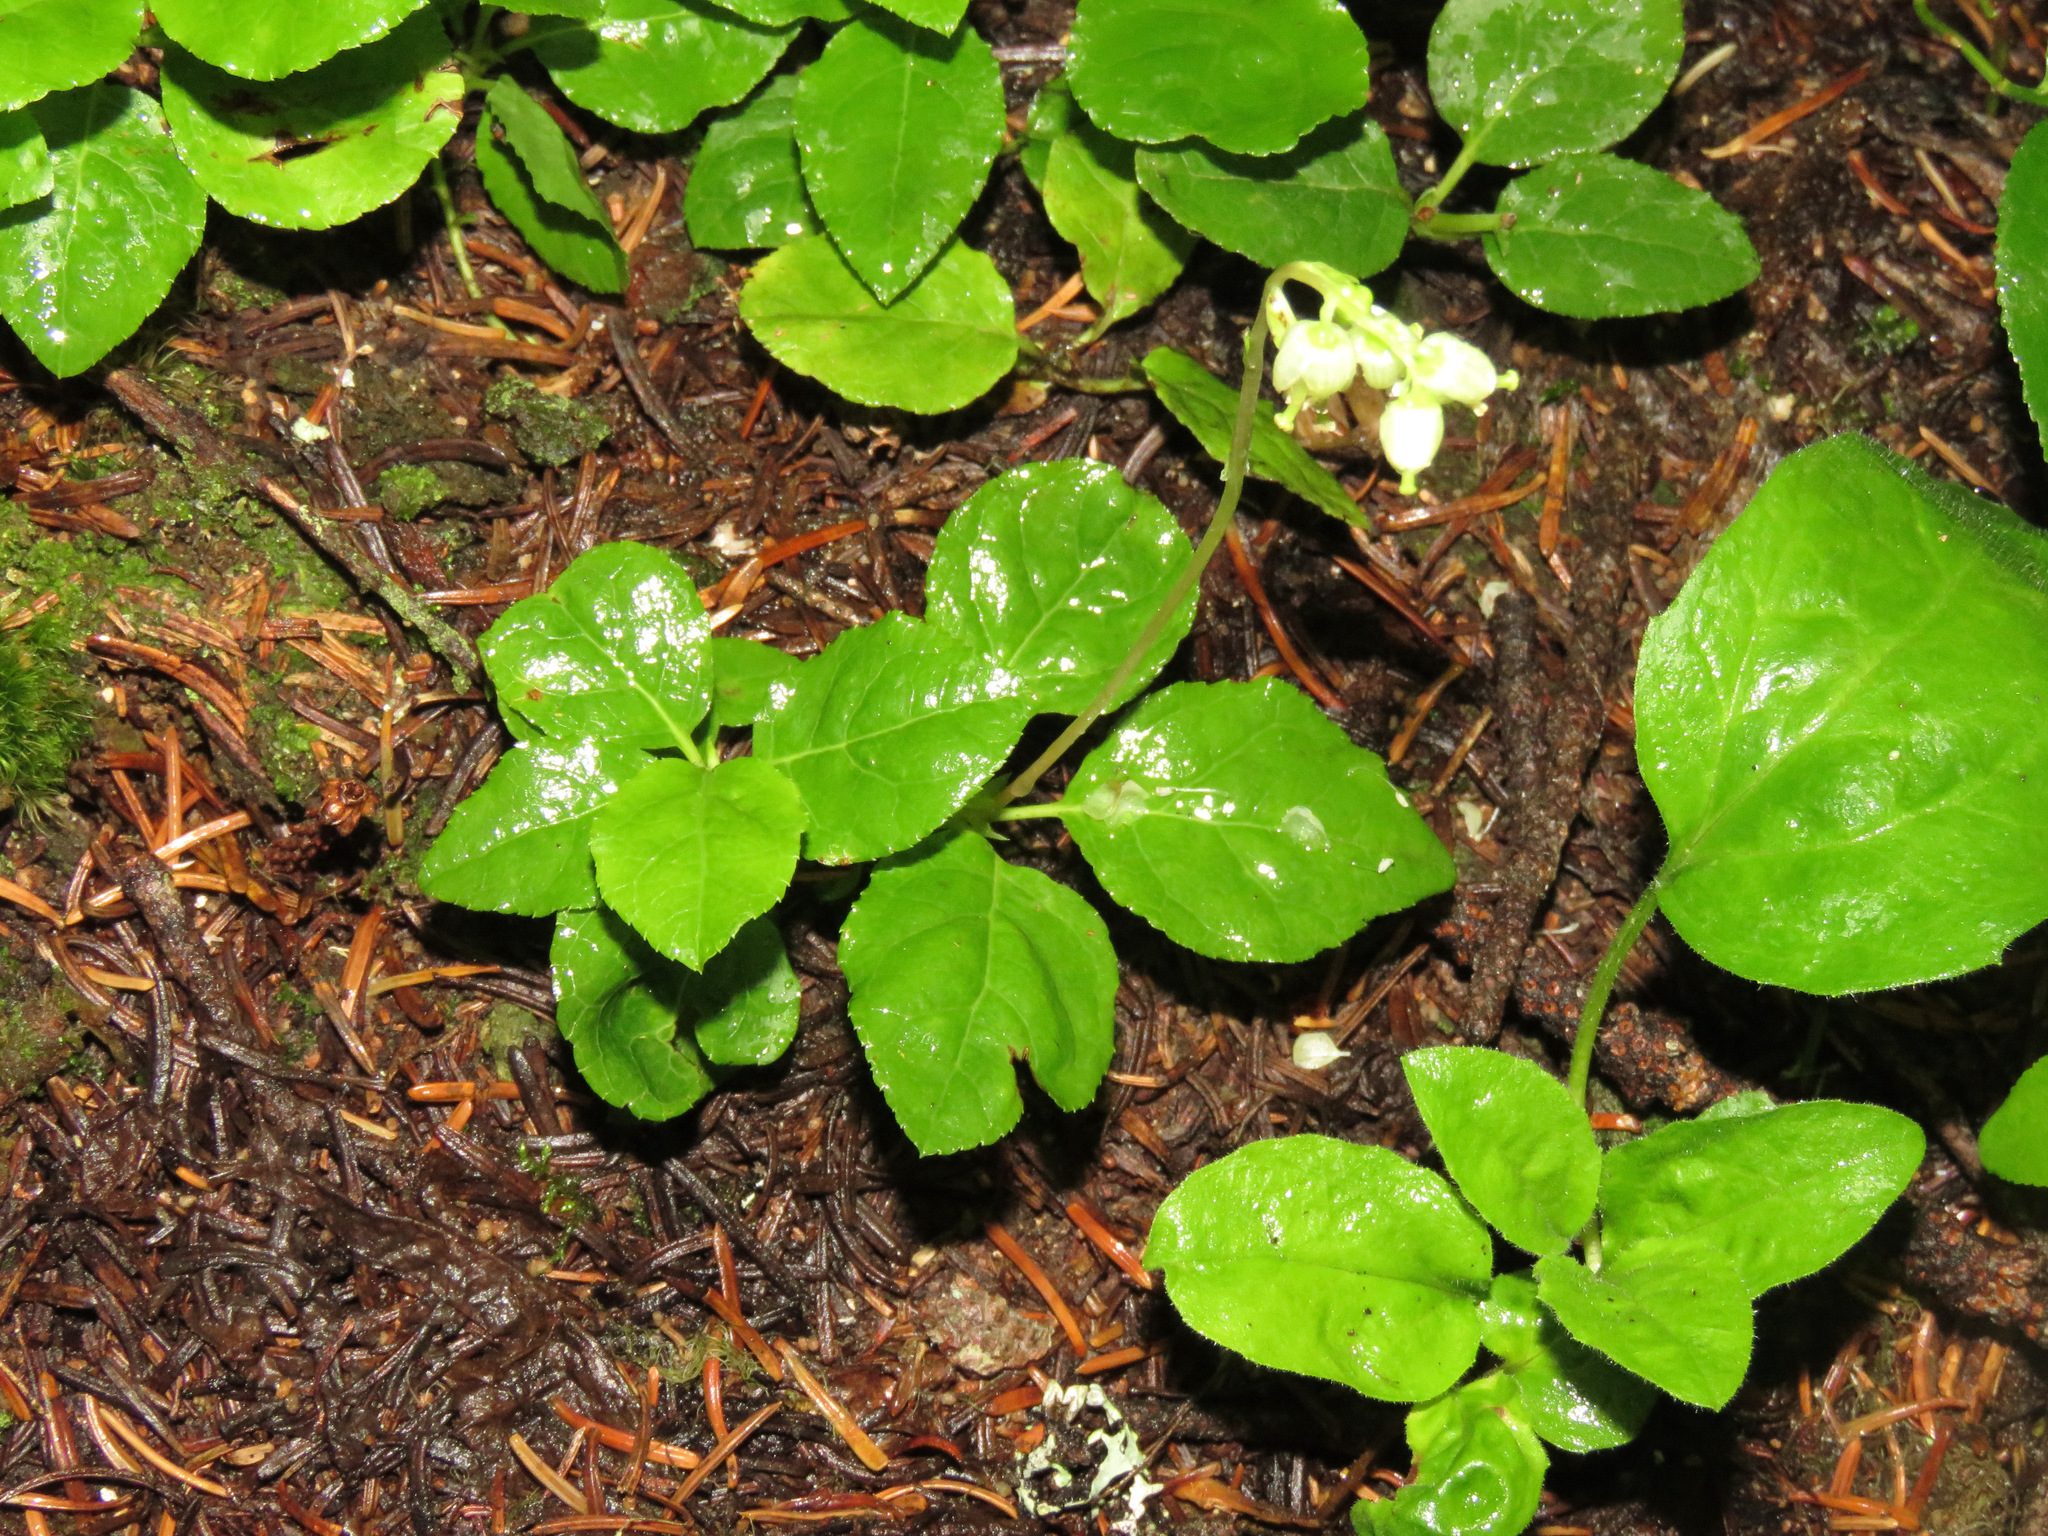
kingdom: Plantae
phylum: Tracheophyta
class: Magnoliopsida
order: Ericales
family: Ericaceae
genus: Orthilia
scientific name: Orthilia secunda
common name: One-sided orthilia
